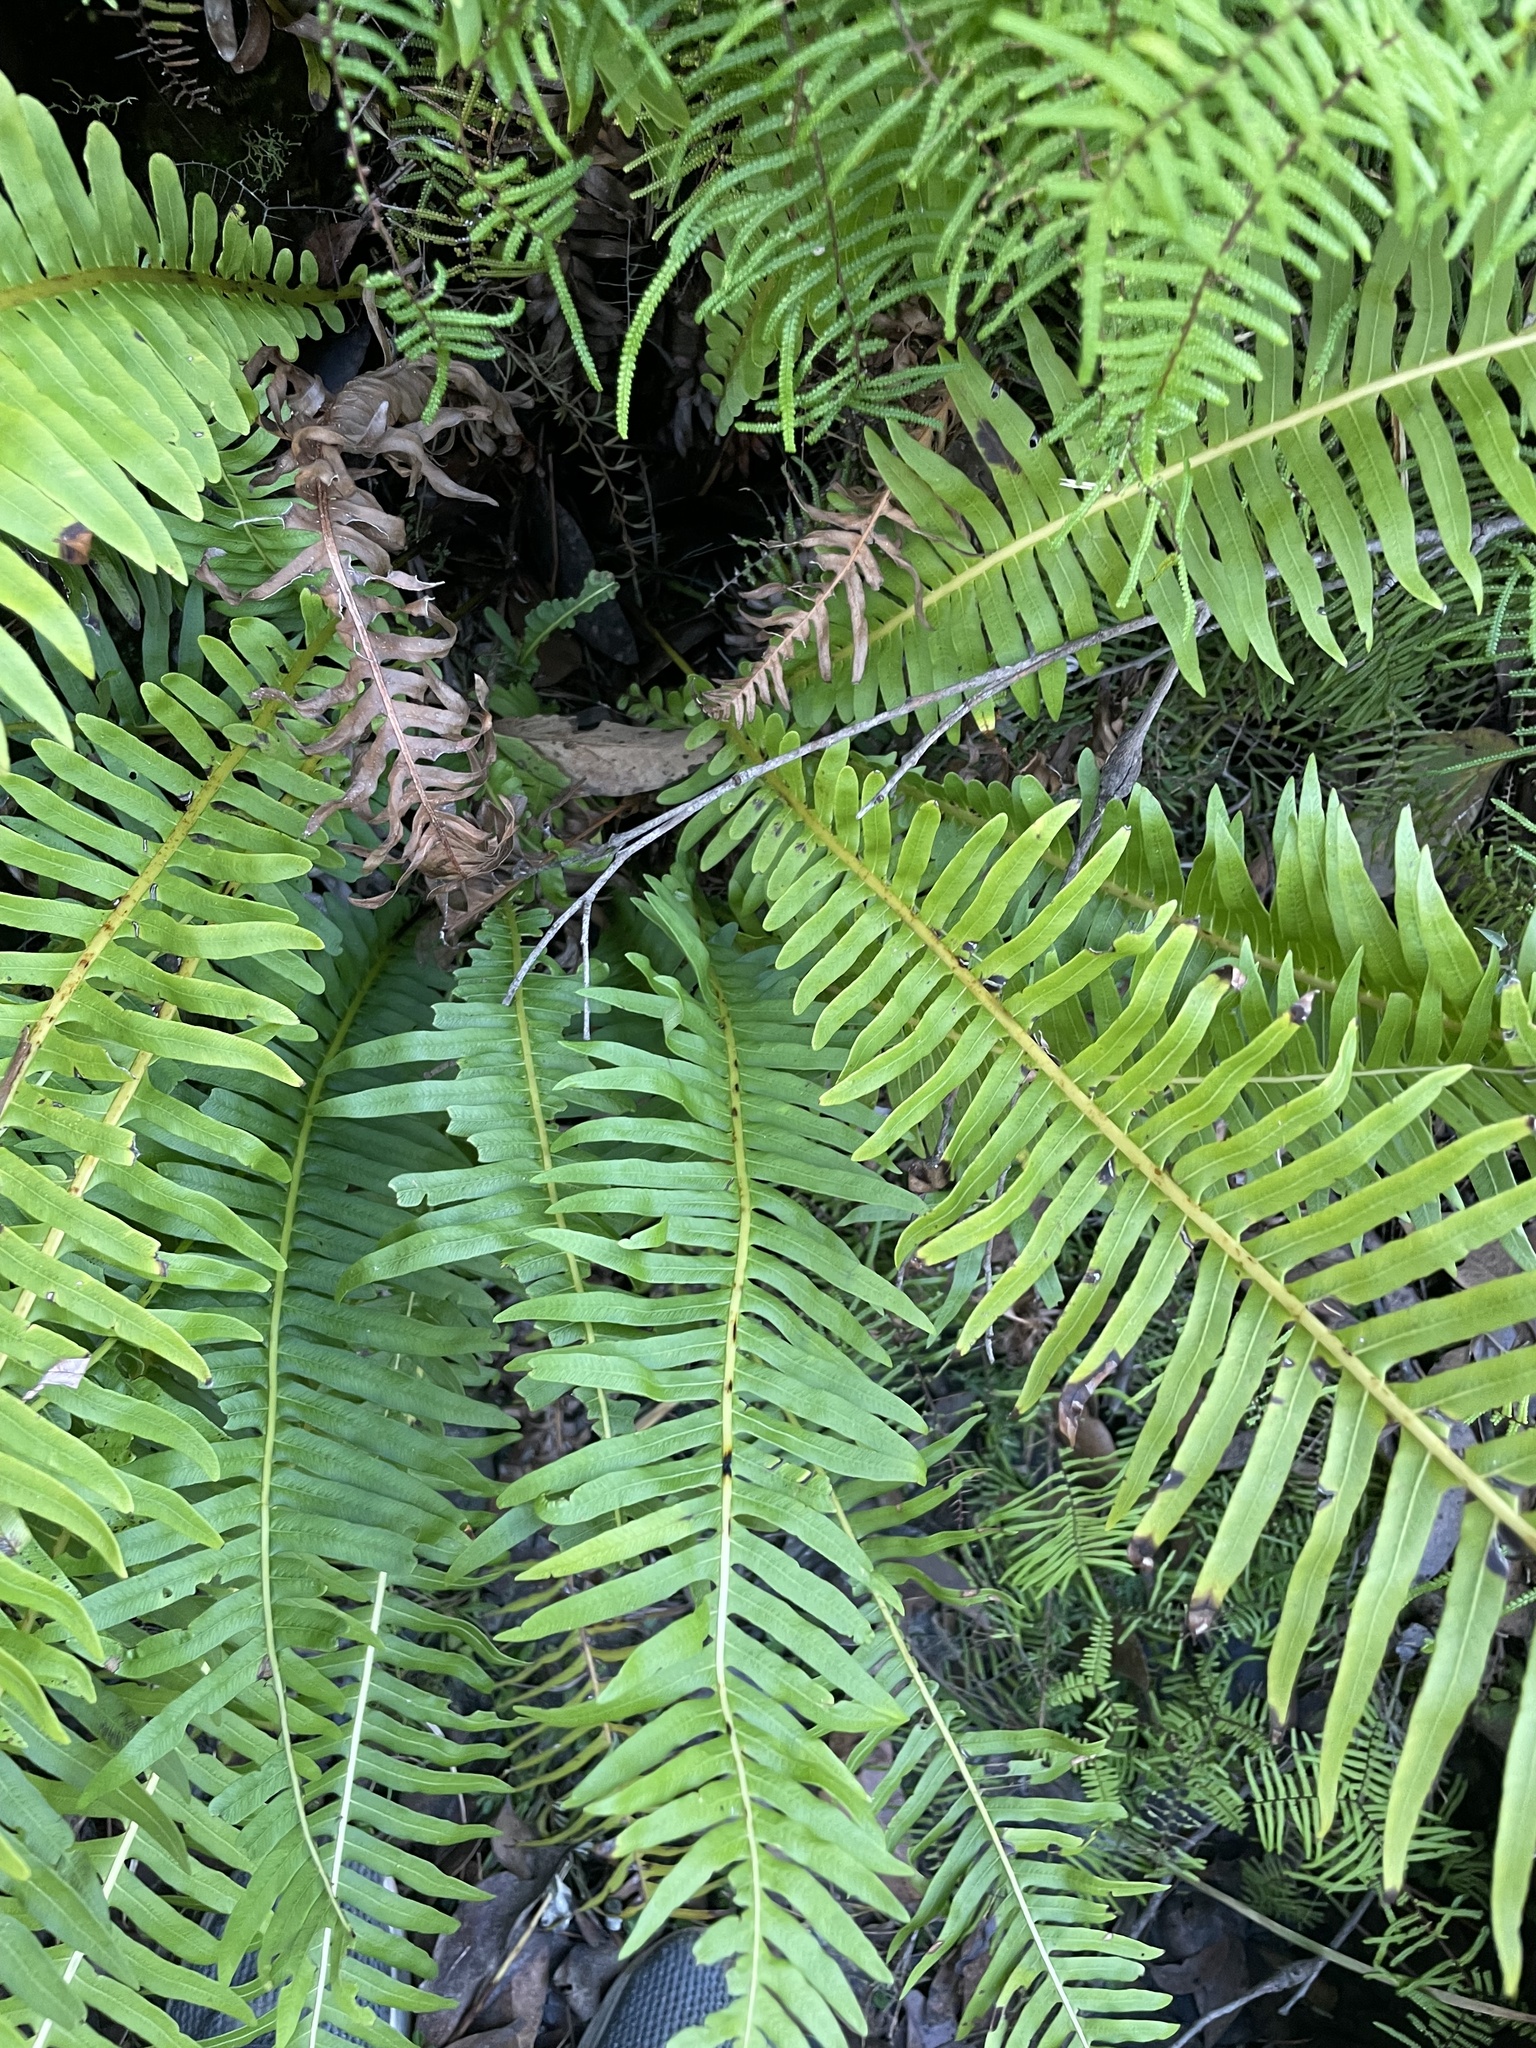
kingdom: Plantae
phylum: Tracheophyta
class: Polypodiopsida
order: Polypodiales
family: Blechnaceae
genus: Lomaria
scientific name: Lomaria nuda
